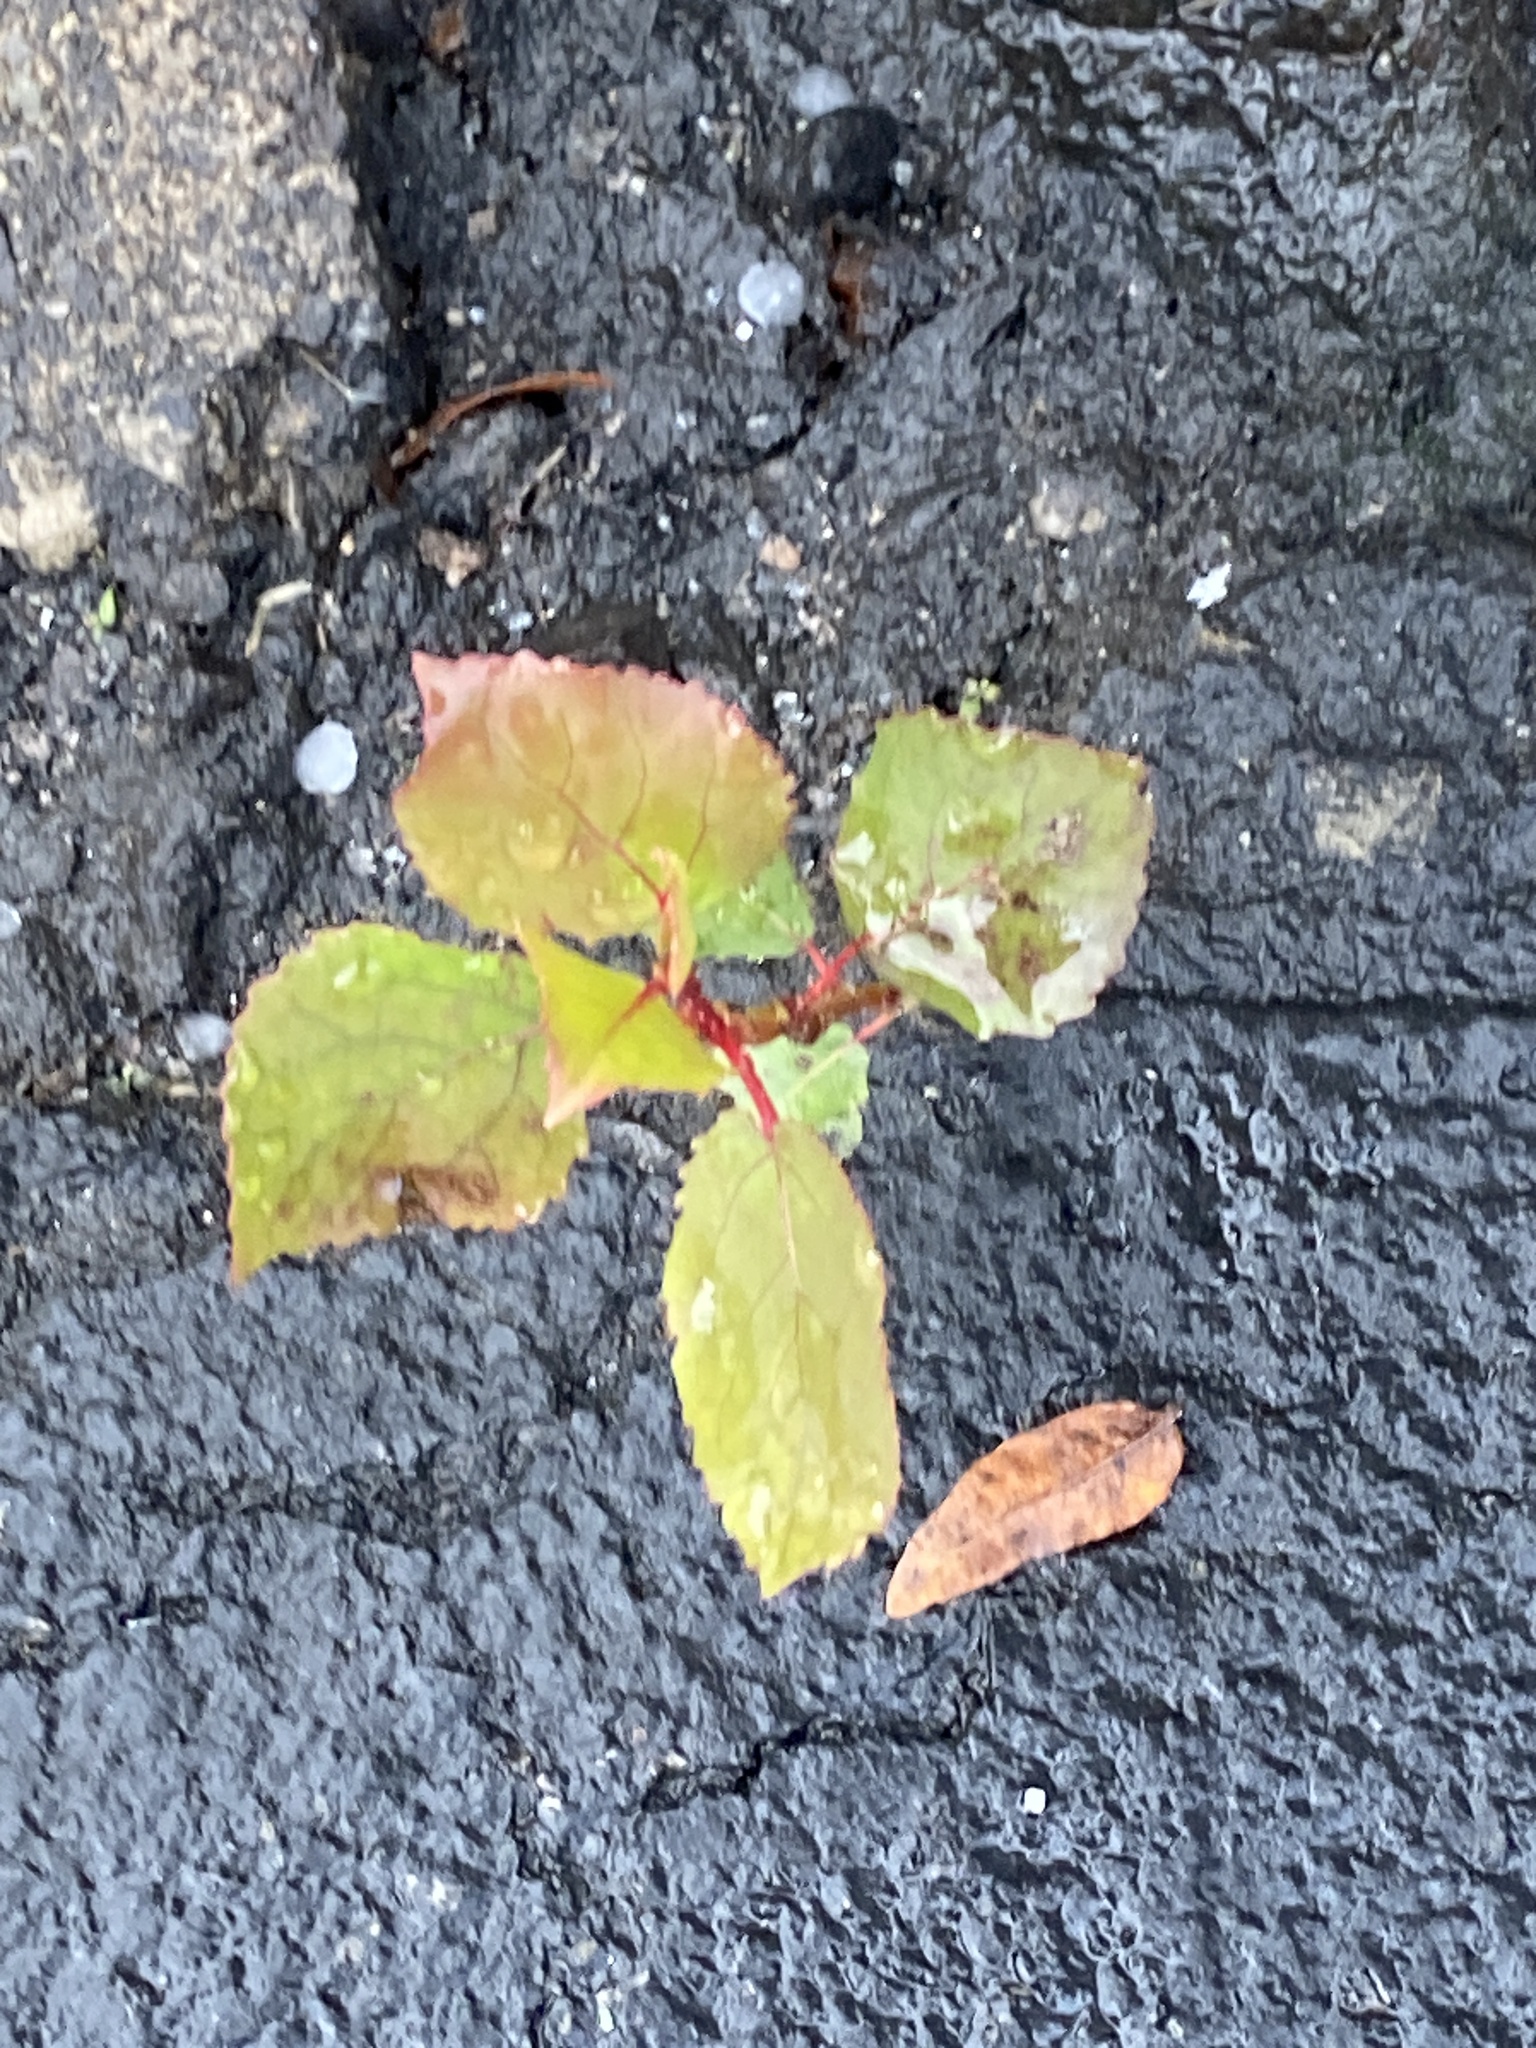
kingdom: Plantae
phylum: Tracheophyta
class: Magnoliopsida
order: Malpighiales
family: Salicaceae
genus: Populus
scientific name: Populus deltoides
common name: Eastern cottonwood
